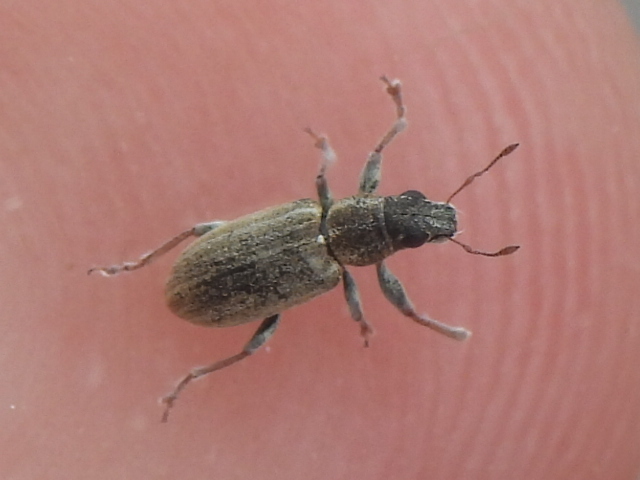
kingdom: Animalia
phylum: Arthropoda
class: Insecta
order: Coleoptera
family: Curculionidae
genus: Sitona
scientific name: Sitona lineatus
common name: Weevil
